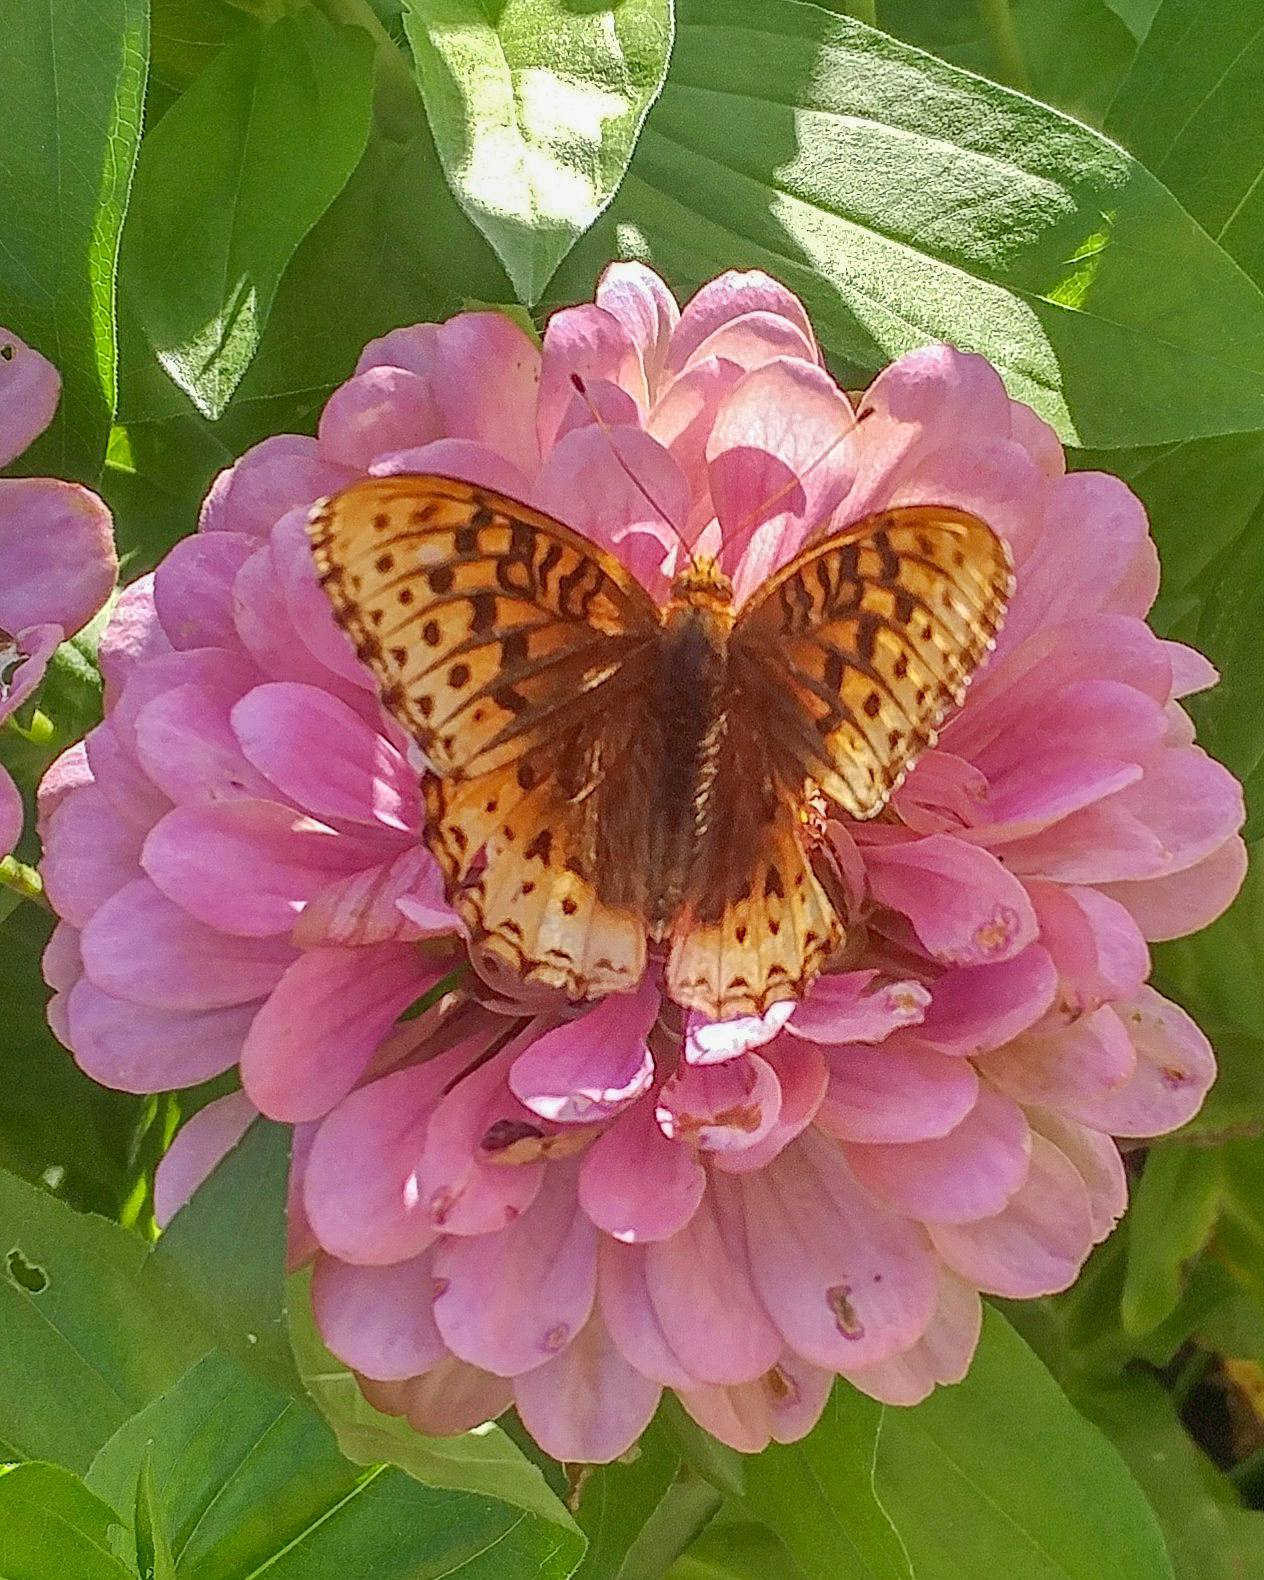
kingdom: Animalia
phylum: Arthropoda
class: Insecta
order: Lepidoptera
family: Nymphalidae
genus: Speyeria
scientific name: Speyeria cybele
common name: Great spangled fritillary
